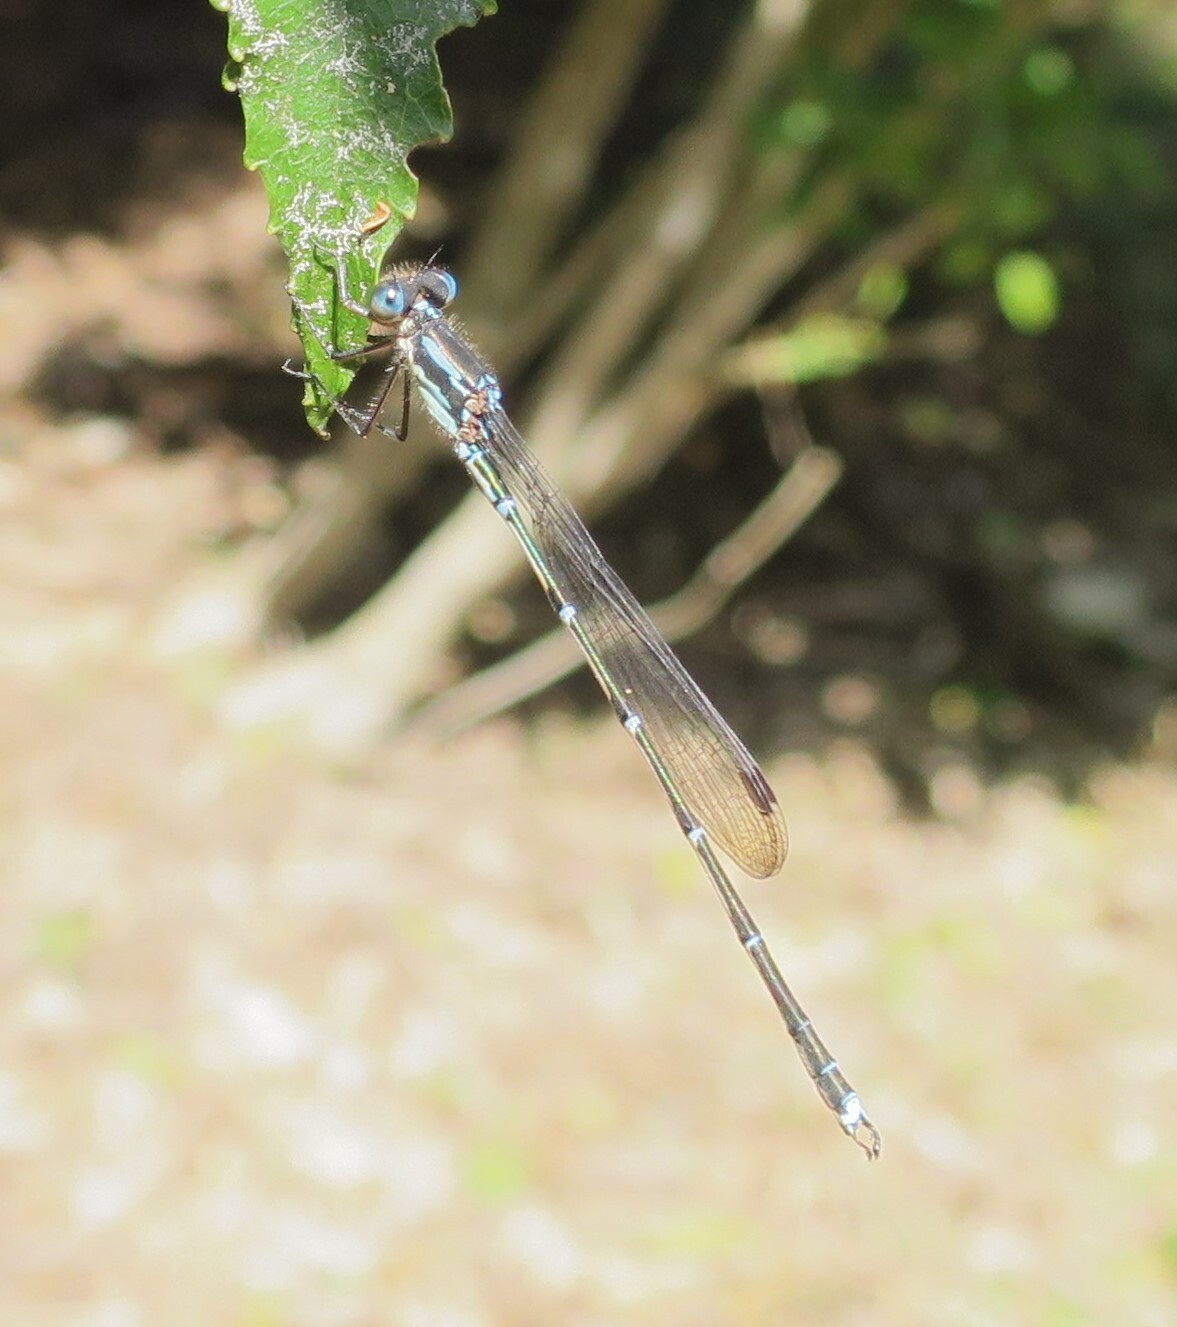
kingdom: Animalia
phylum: Arthropoda
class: Insecta
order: Odonata
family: Lestidae
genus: Austrolestes
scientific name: Austrolestes colensonis
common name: Blue damselfly
